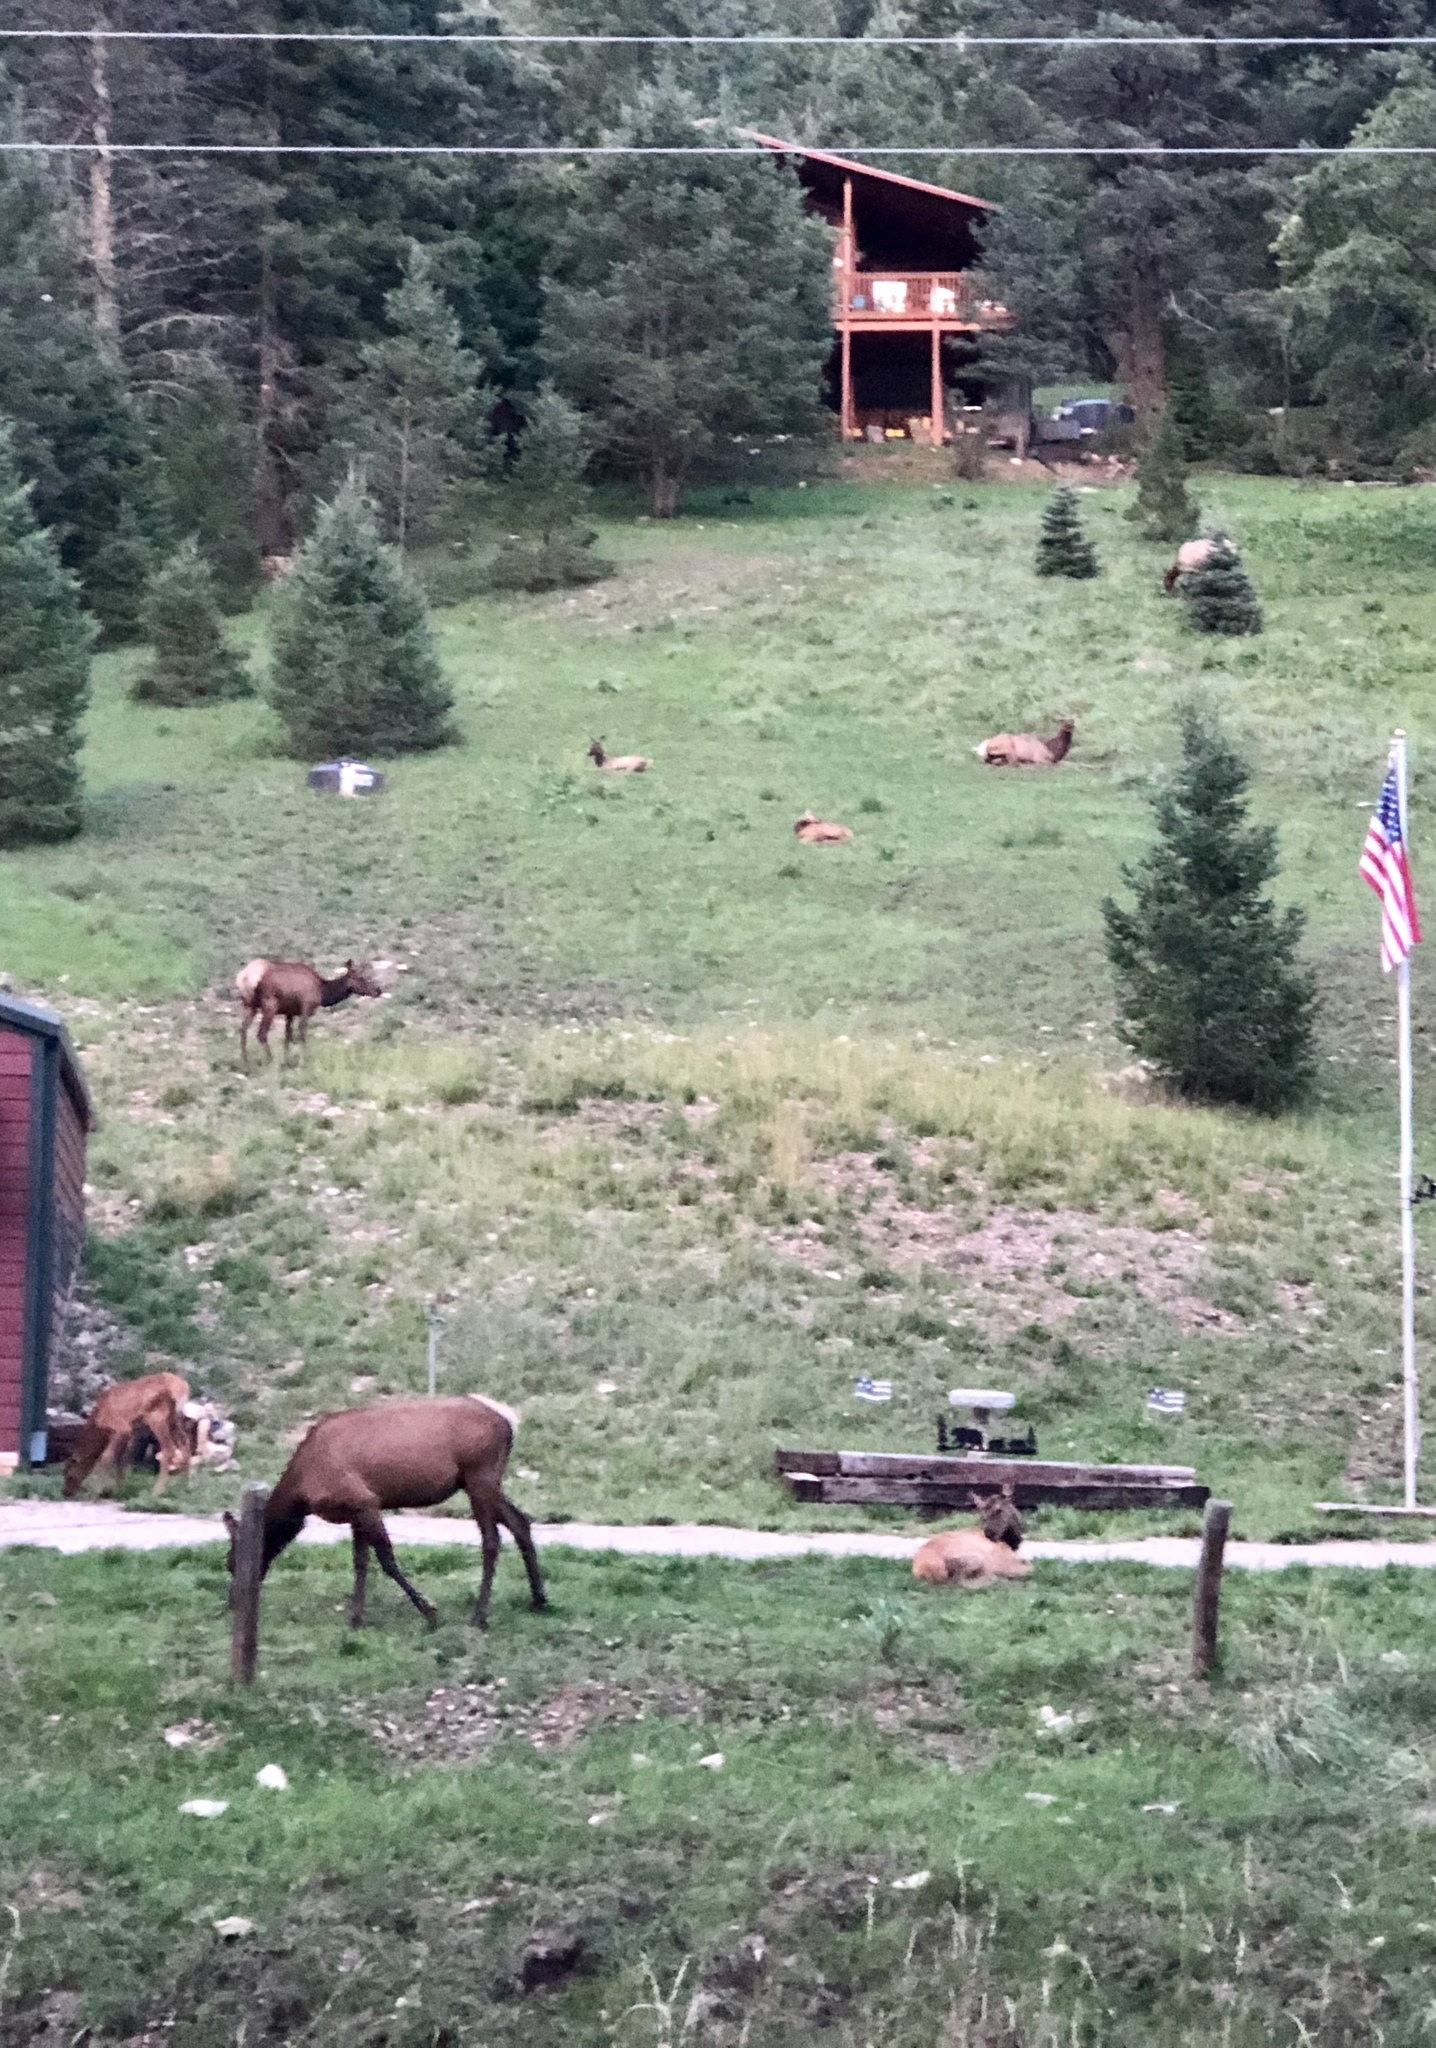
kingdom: Animalia
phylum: Chordata
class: Mammalia
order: Artiodactyla
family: Cervidae
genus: Cervus
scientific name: Cervus elaphus
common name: Red deer
